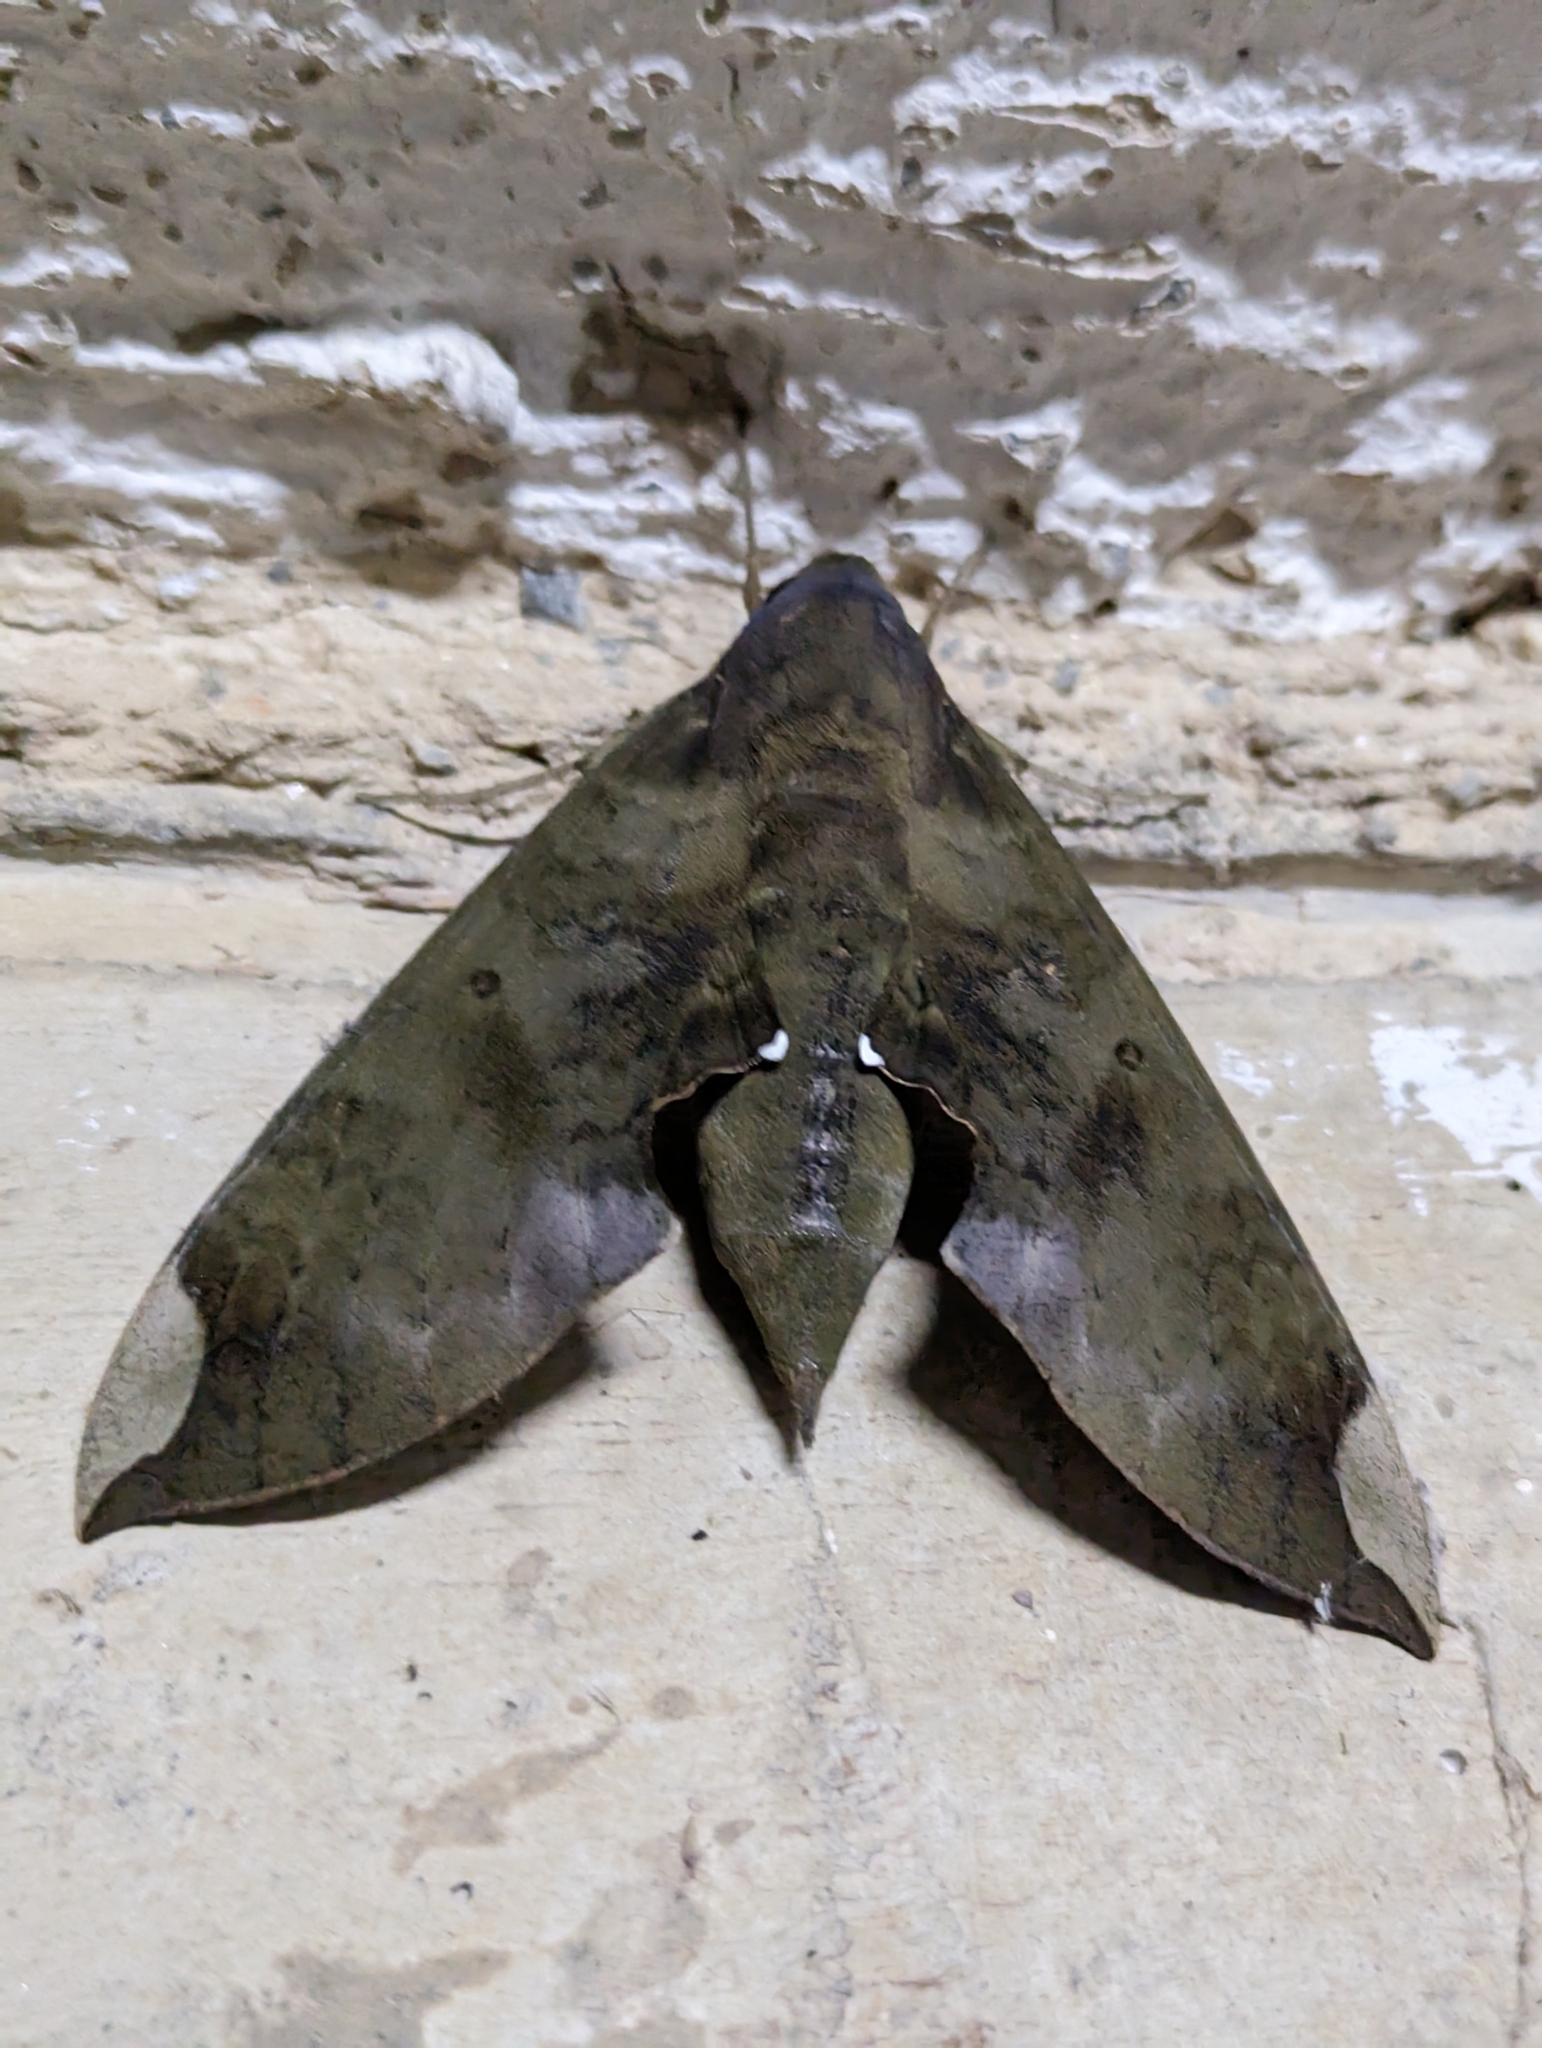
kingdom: Animalia
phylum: Arthropoda
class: Insecta
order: Lepidoptera
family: Sphingidae
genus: Pachylia
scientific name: Pachylia ficus
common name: Fig sphinx
